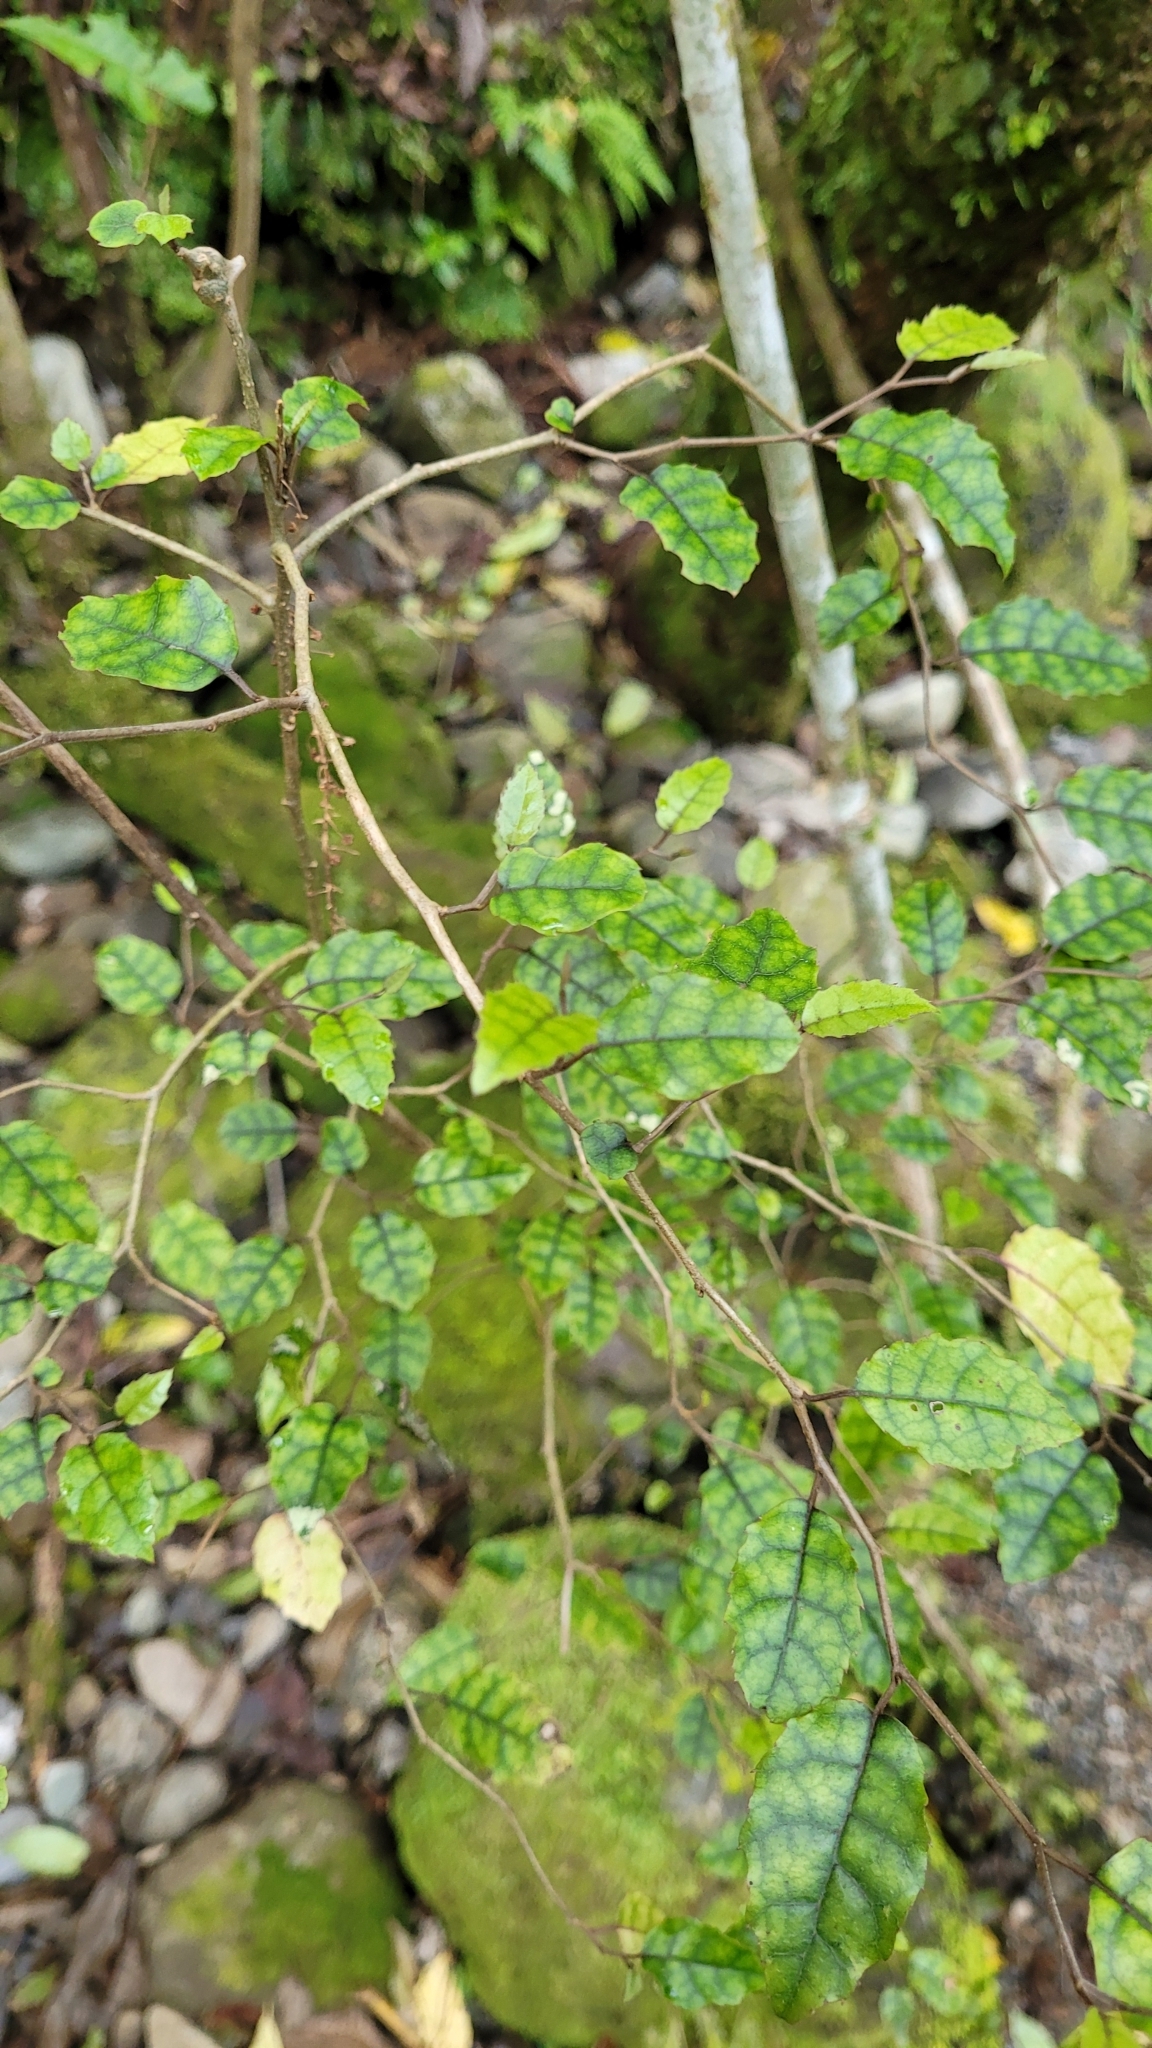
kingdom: Plantae
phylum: Tracheophyta
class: Magnoliopsida
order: Asterales
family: Rousseaceae
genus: Carpodetus
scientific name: Carpodetus serratus
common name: White mapau
